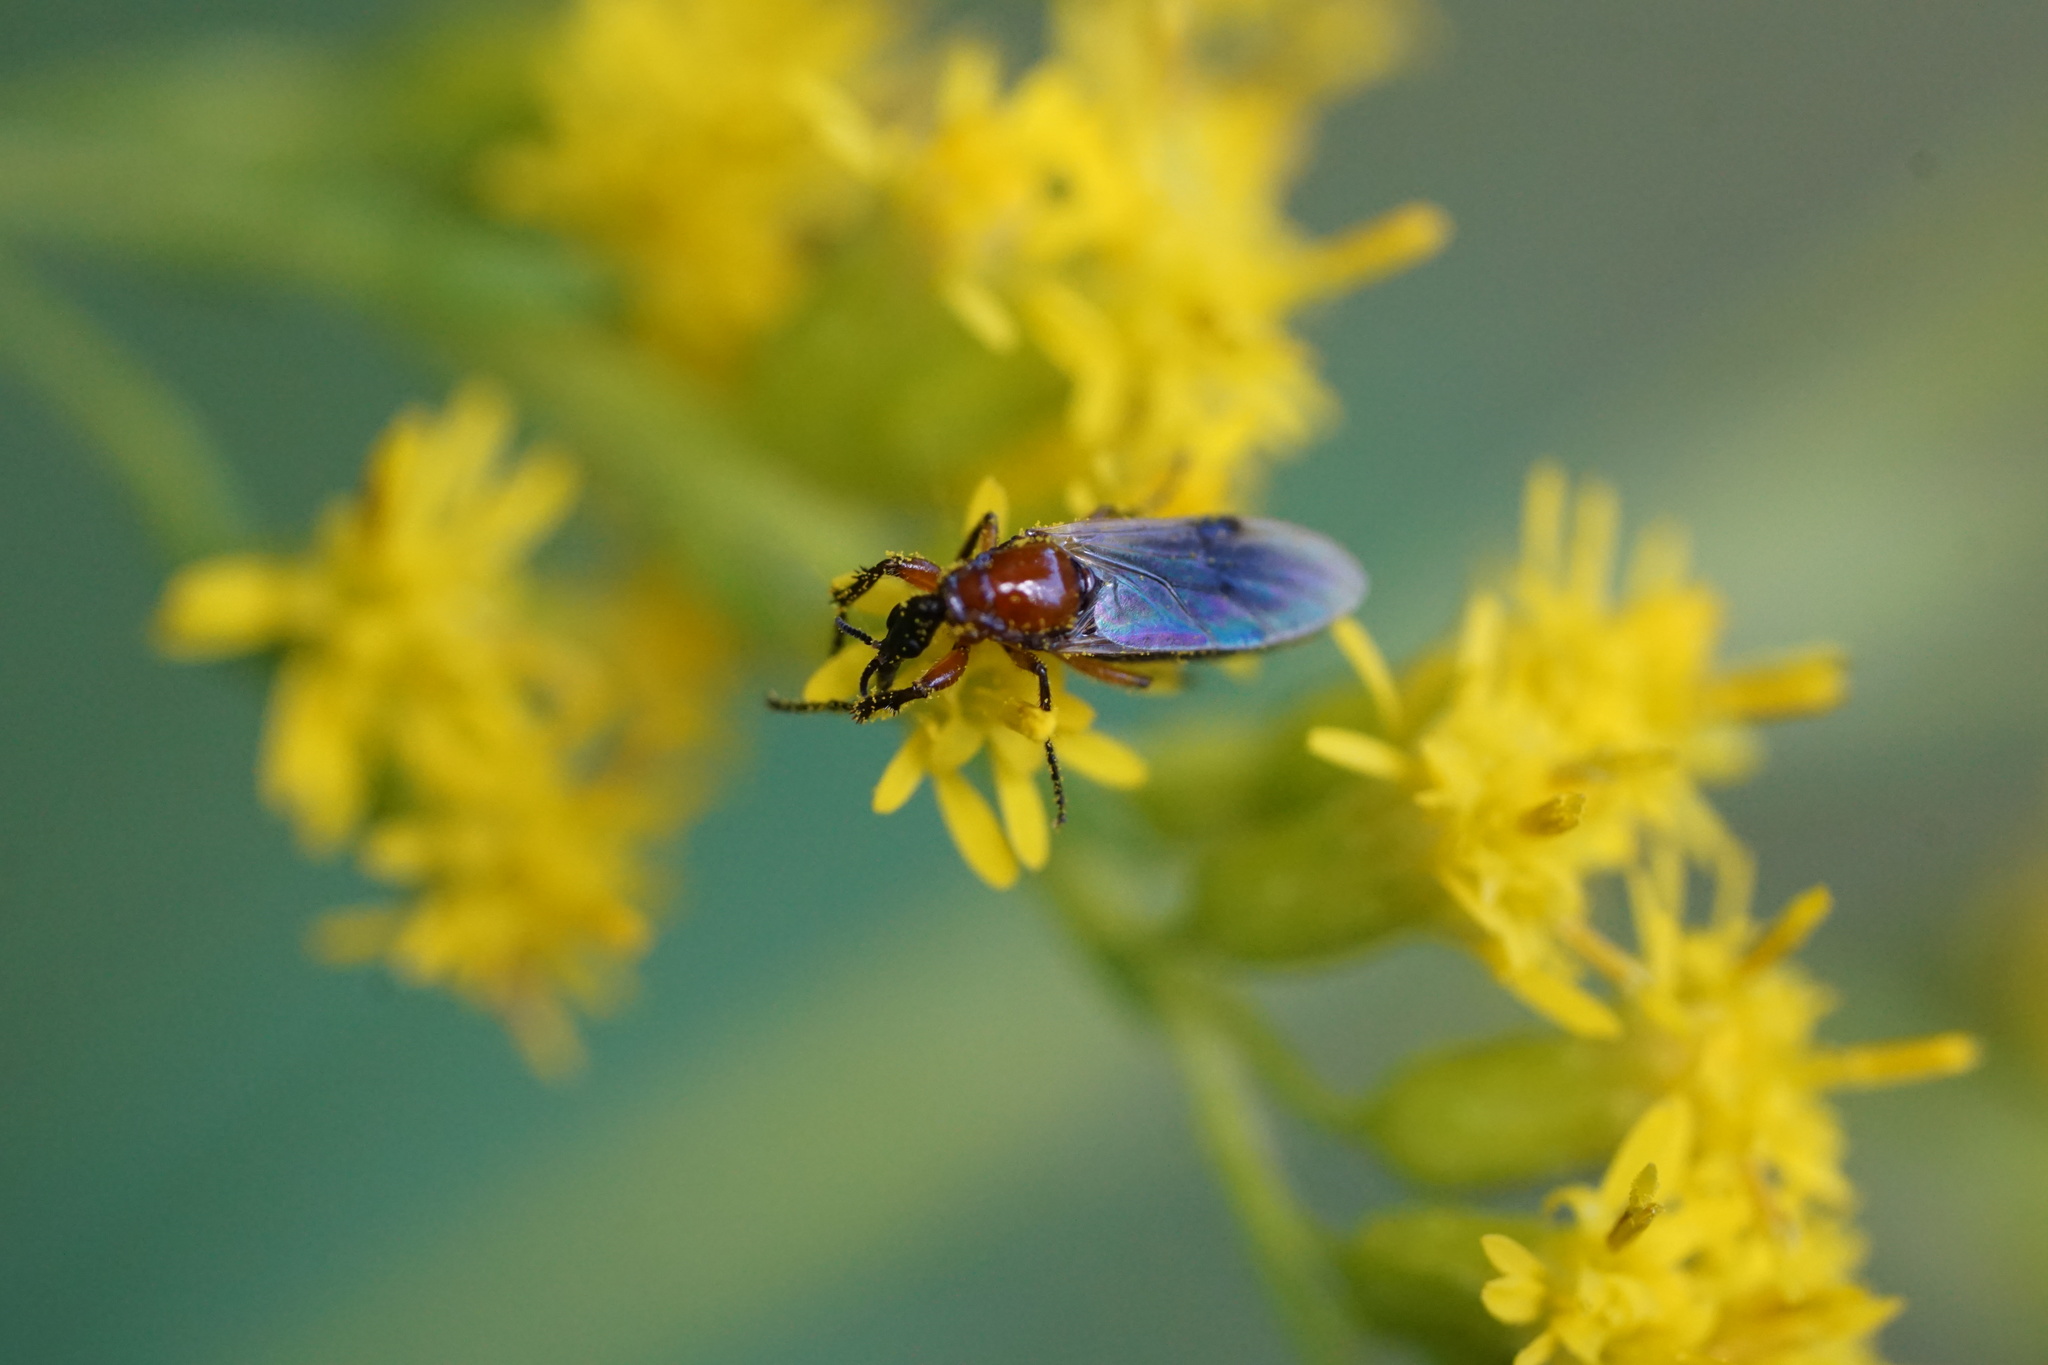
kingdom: Animalia
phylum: Arthropoda
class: Insecta
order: Diptera
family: Bibionidae
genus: Dilophus
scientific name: Dilophus stigmaterus
